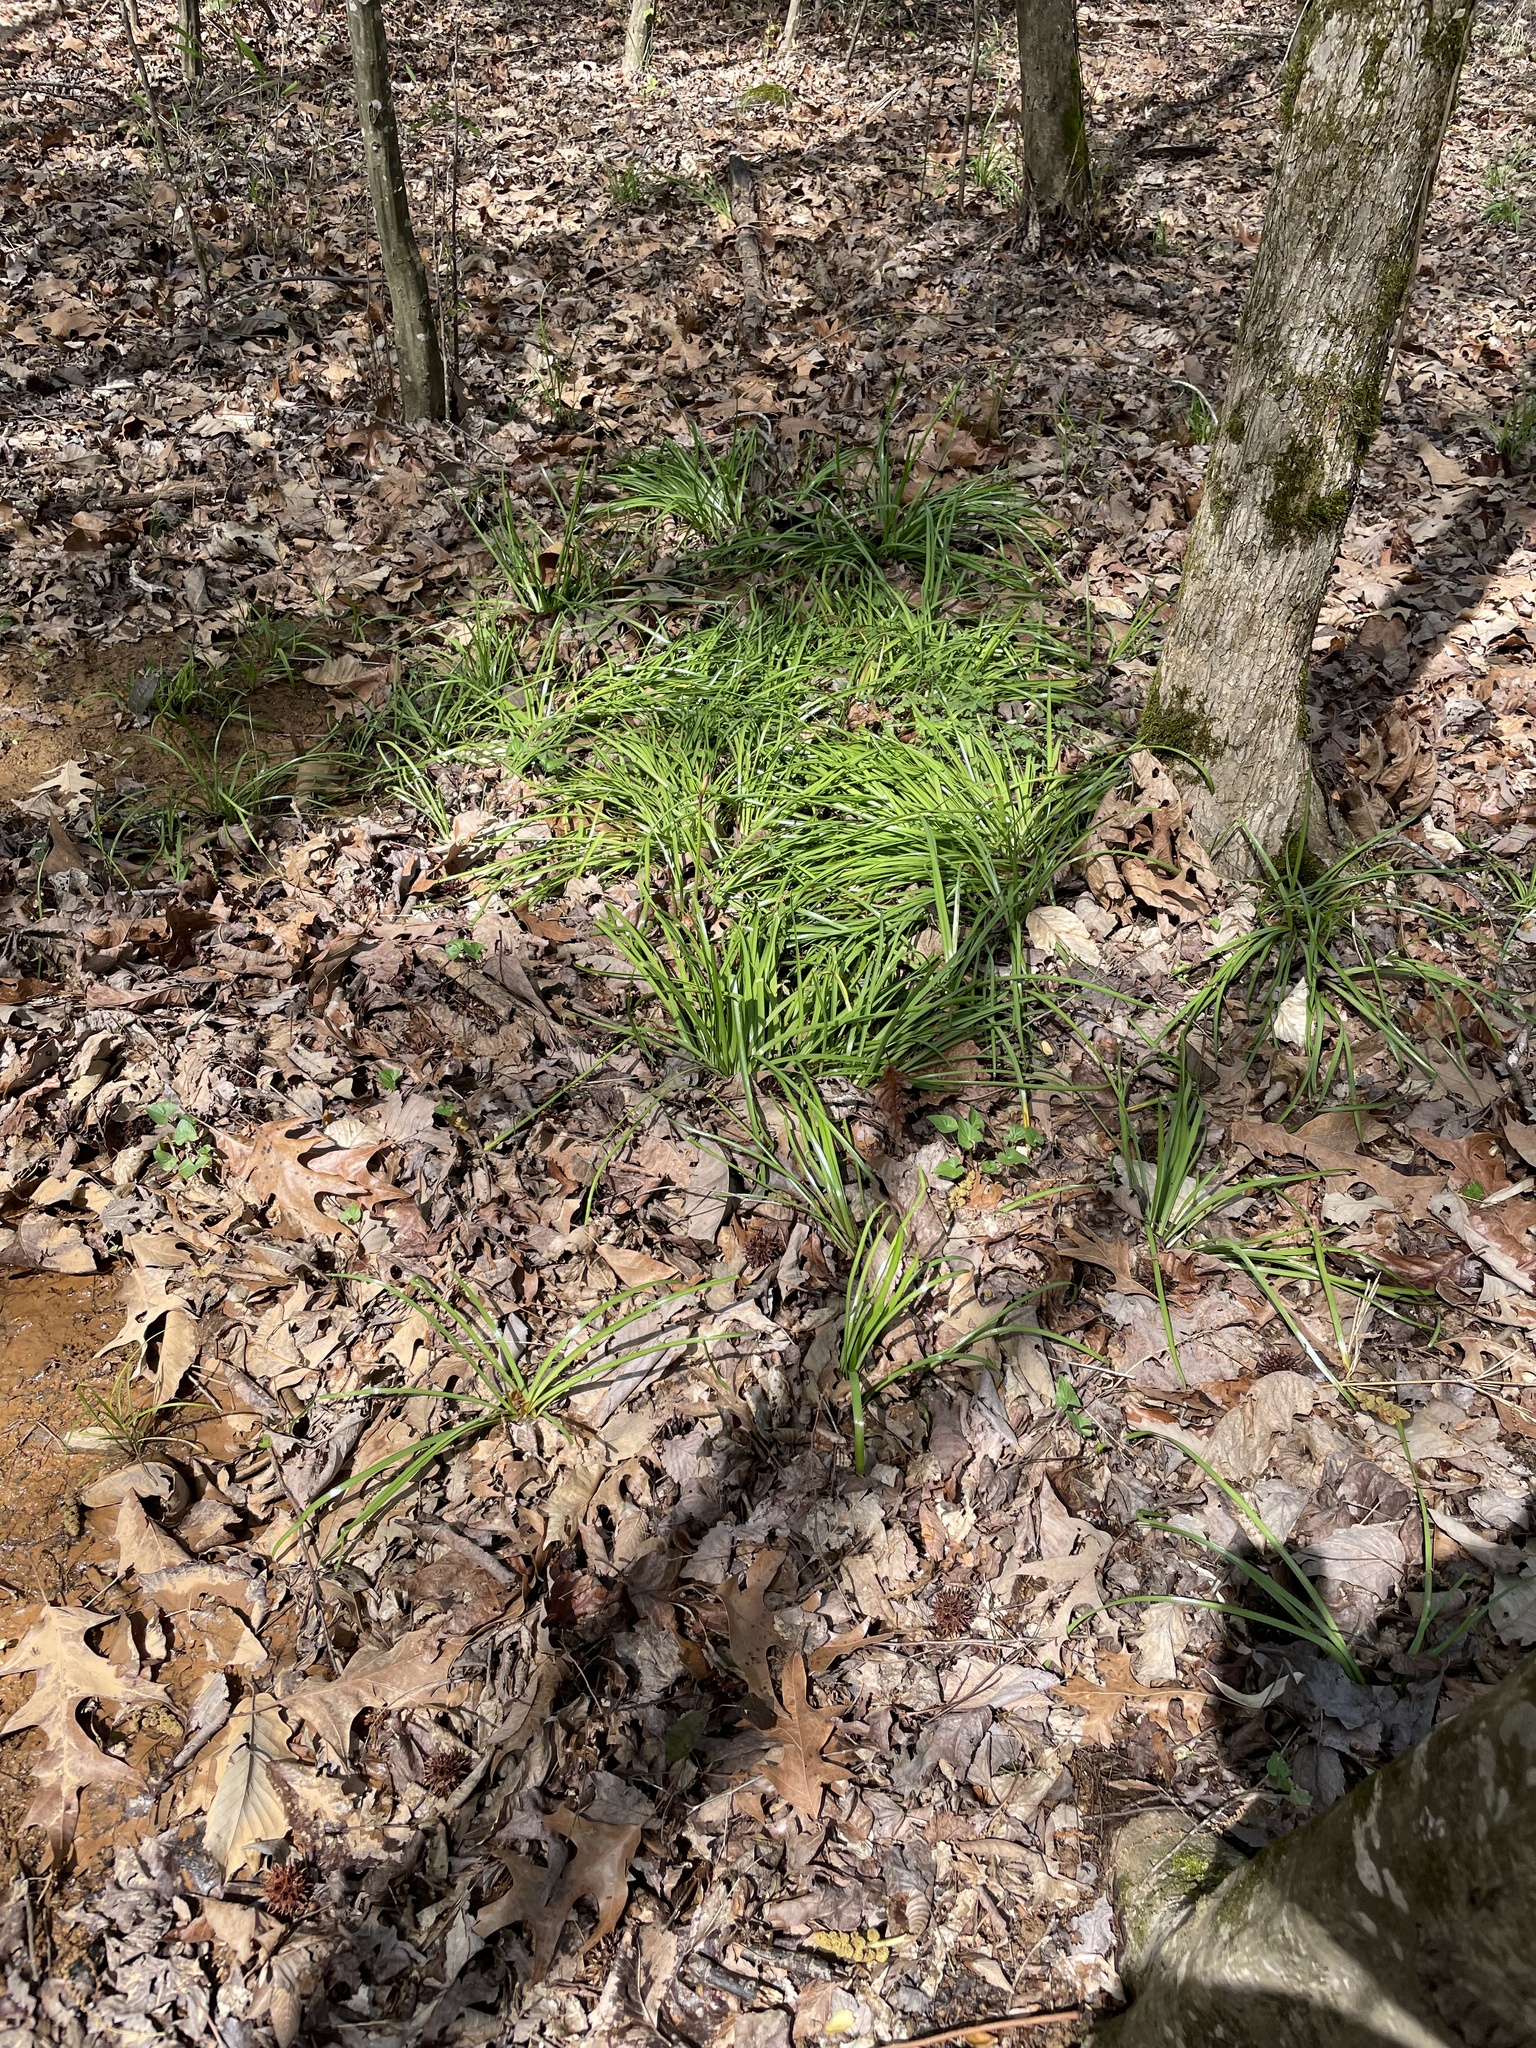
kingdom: Plantae
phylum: Tracheophyta
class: Liliopsida
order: Asparagales
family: Amaryllidaceae
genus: Zephyranthes
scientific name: Zephyranthes atamasco
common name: Atamasco lily
